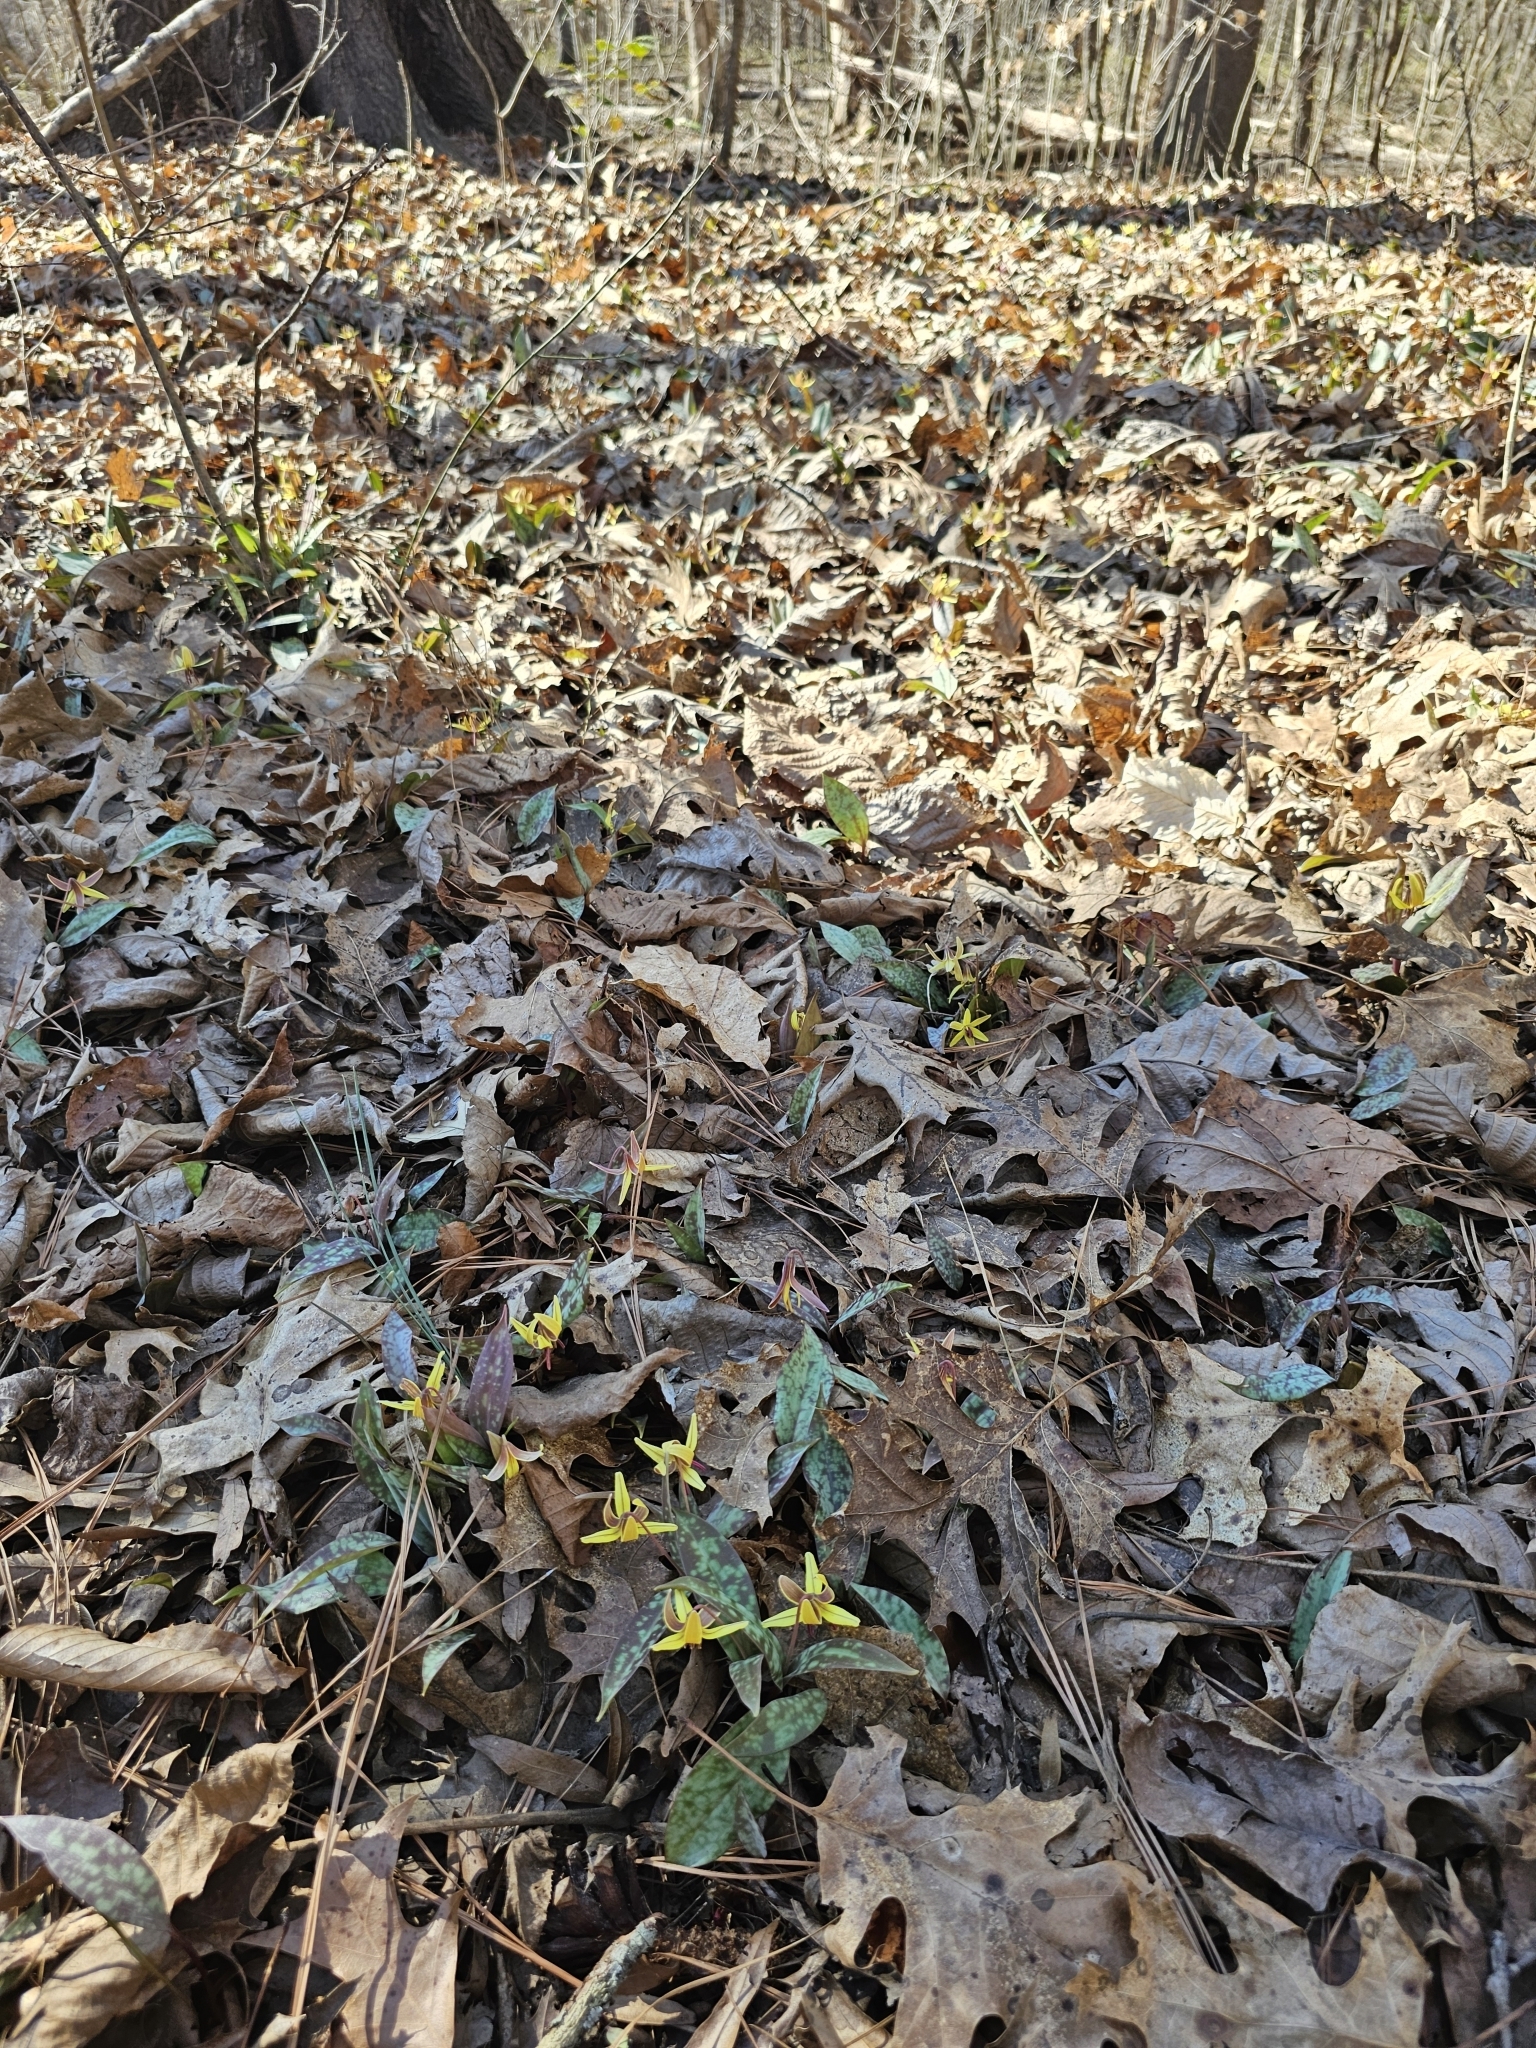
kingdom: Plantae
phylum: Tracheophyta
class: Liliopsida
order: Liliales
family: Liliaceae
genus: Erythronium
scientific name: Erythronium umbilicatum
